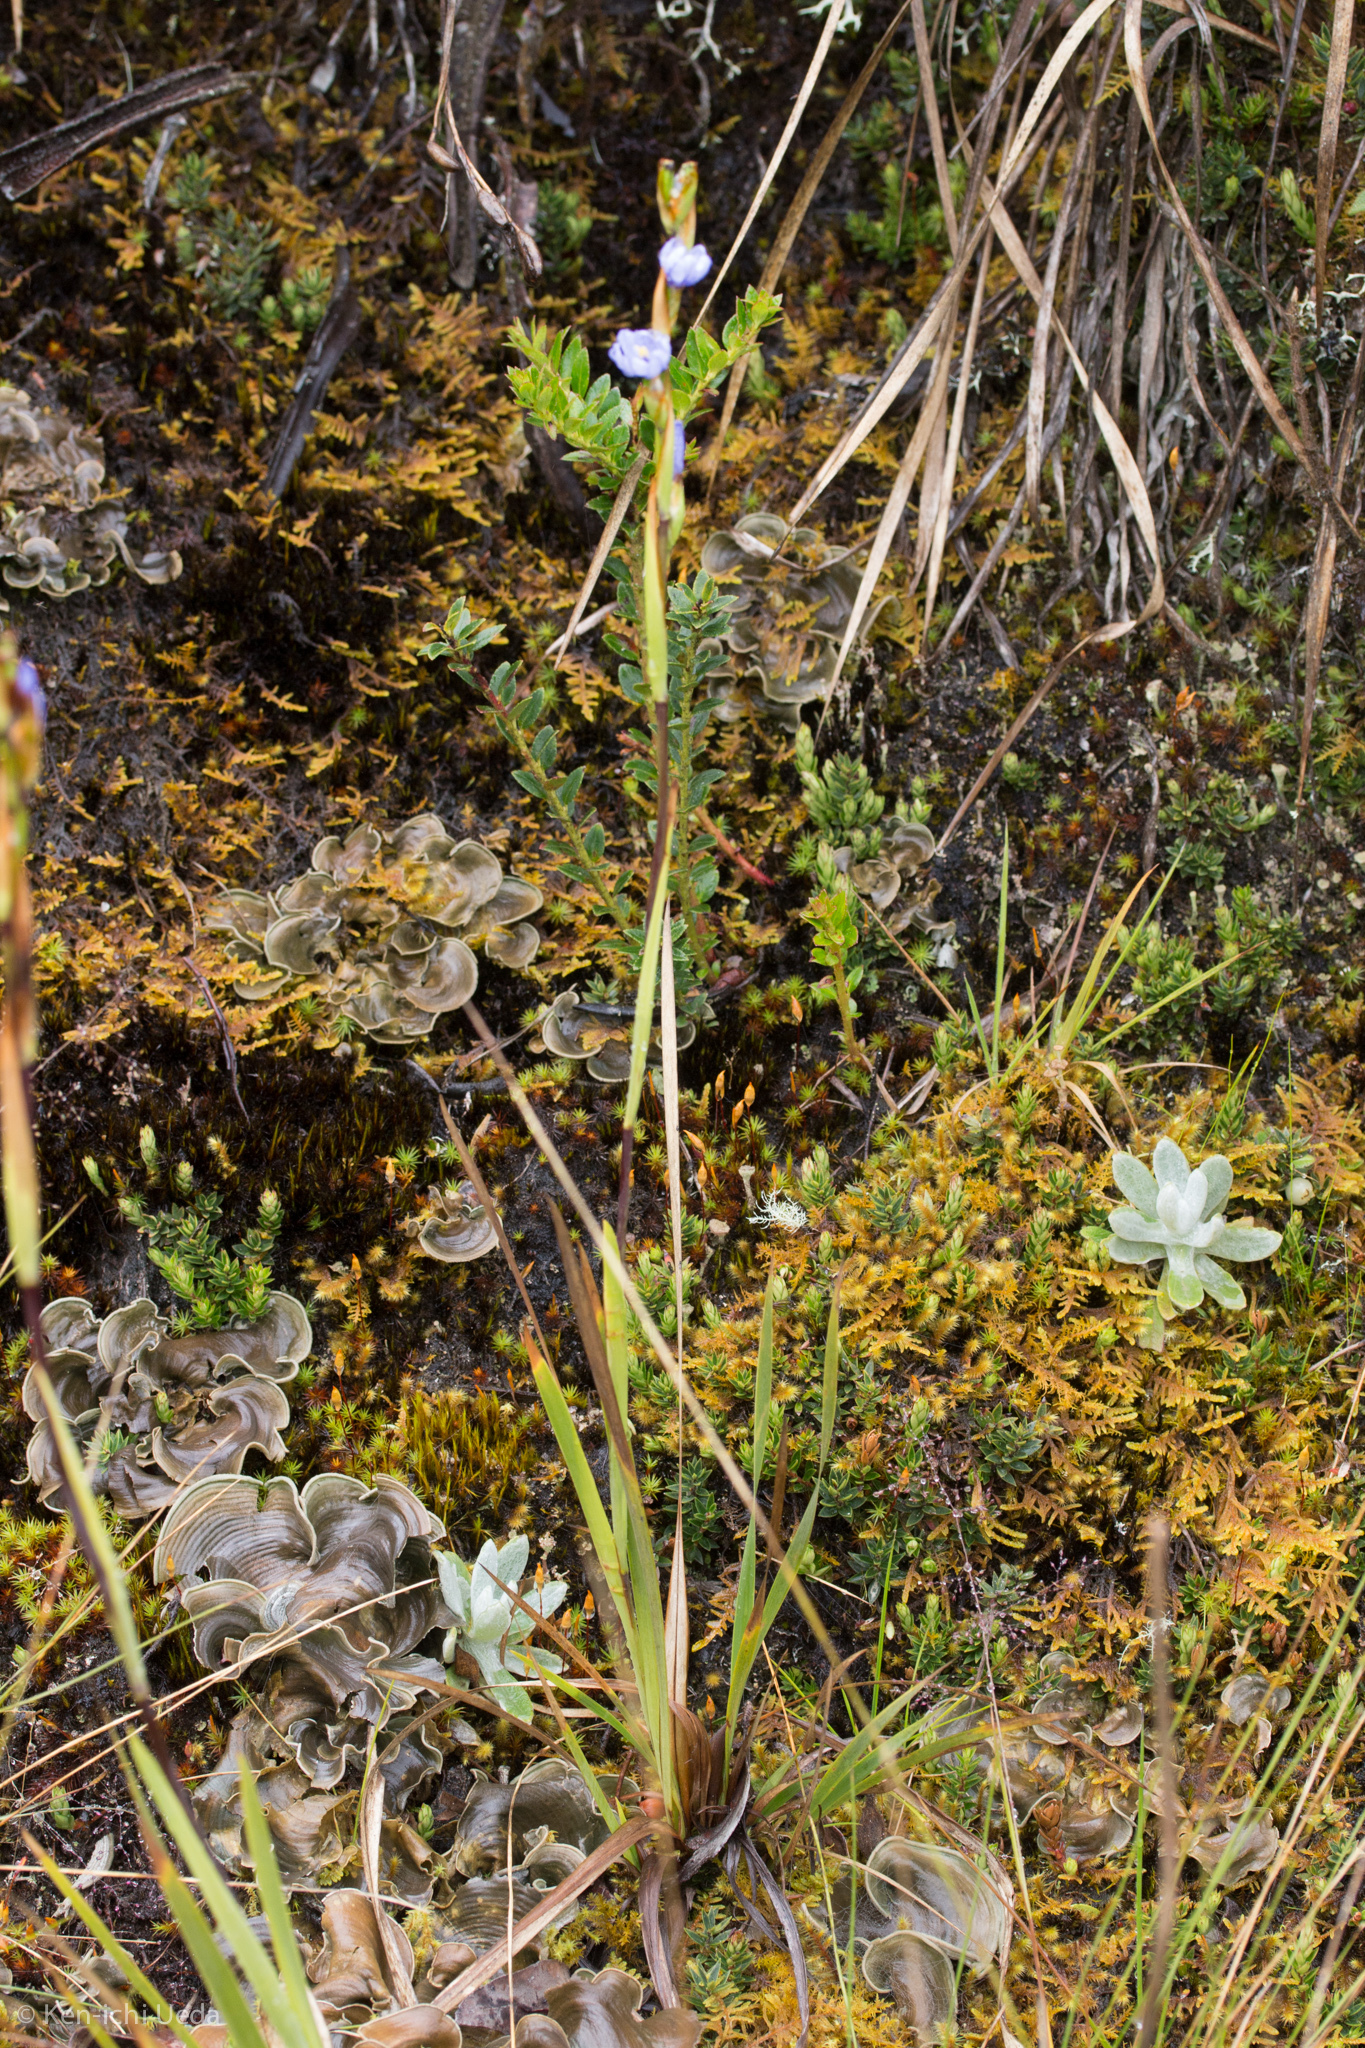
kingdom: Plantae
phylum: Tracheophyta
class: Liliopsida
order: Asparagales
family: Iridaceae
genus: Orthrosanthus
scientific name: Orthrosanthus chimboracensis
